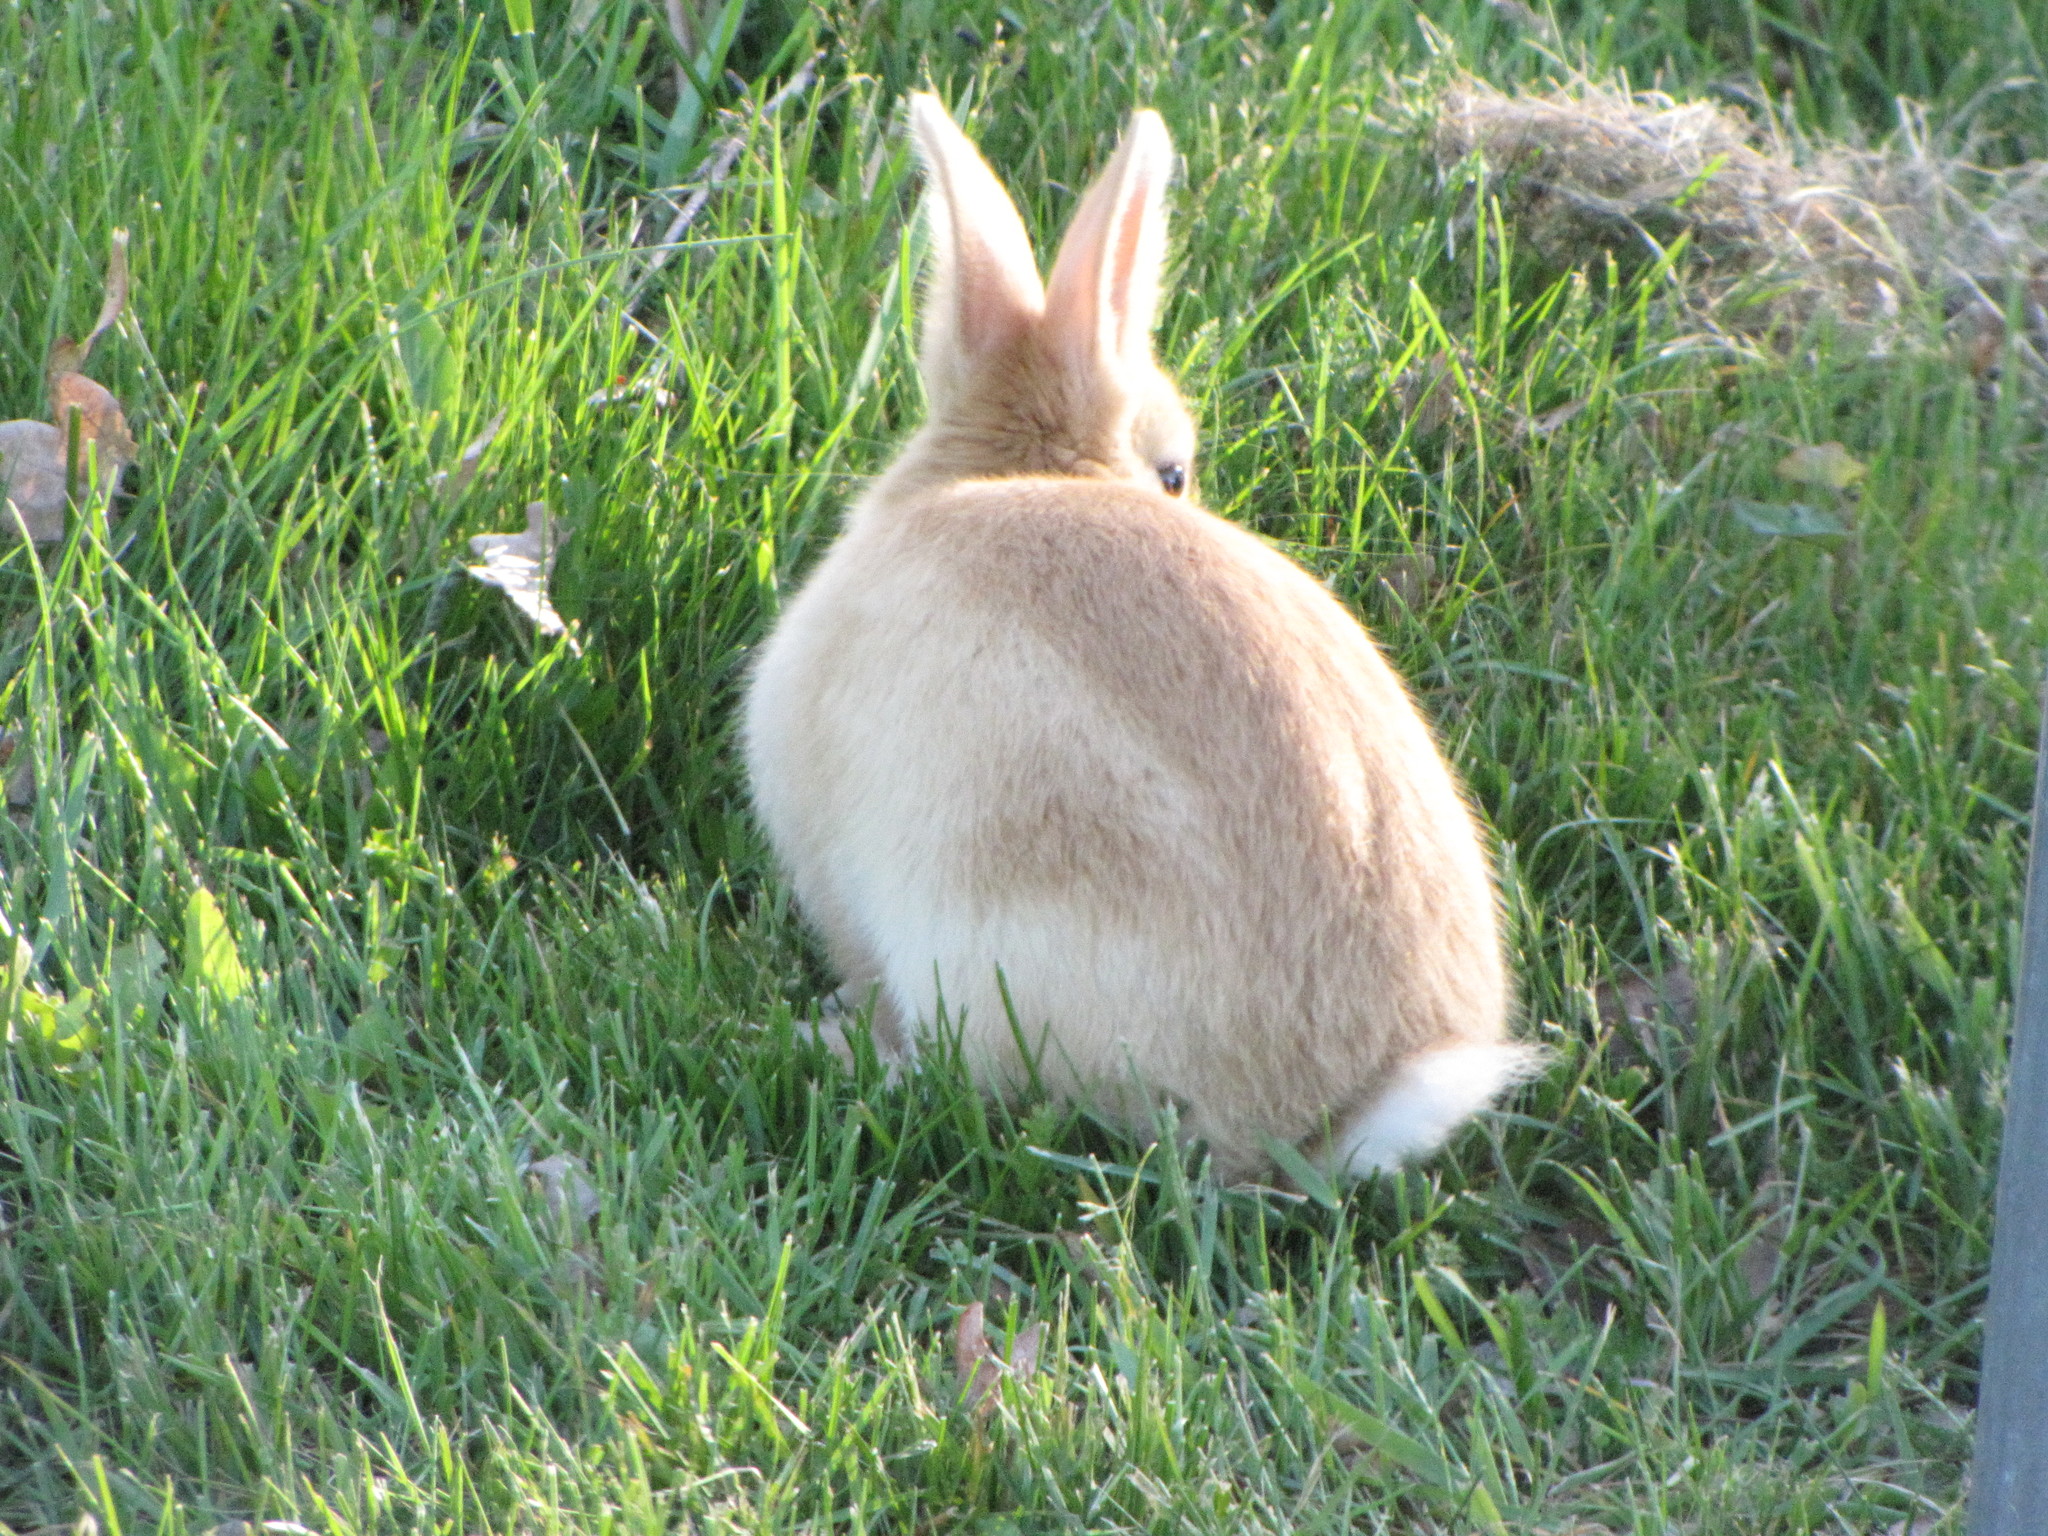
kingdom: Animalia
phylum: Chordata
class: Mammalia
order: Lagomorpha
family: Leporidae
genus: Oryctolagus
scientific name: Oryctolagus cuniculus
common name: European rabbit
